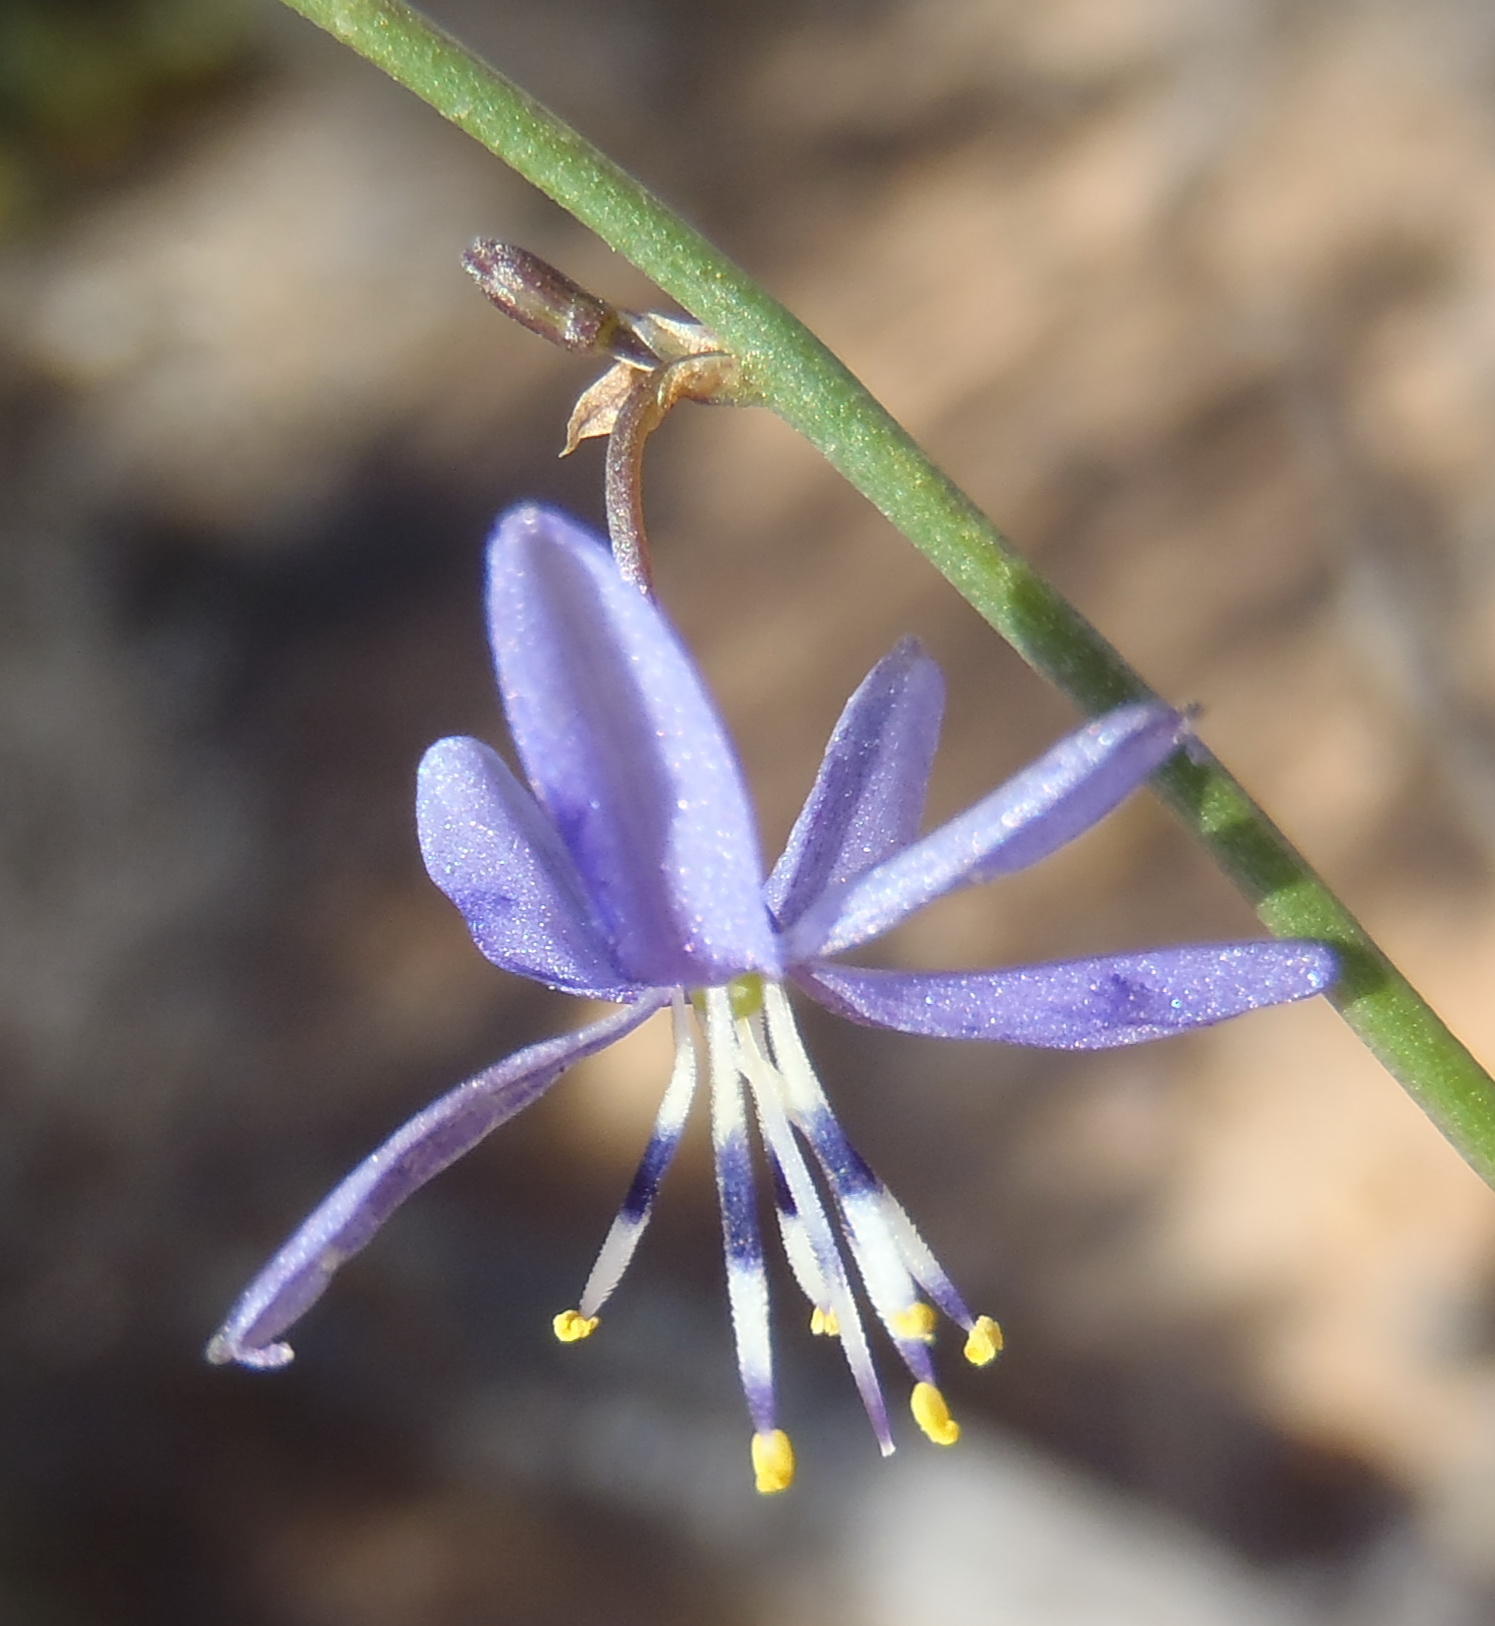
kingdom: Plantae
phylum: Tracheophyta
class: Liliopsida
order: Asparagales
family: Asphodelaceae
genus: Caesia
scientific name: Caesia contorta
